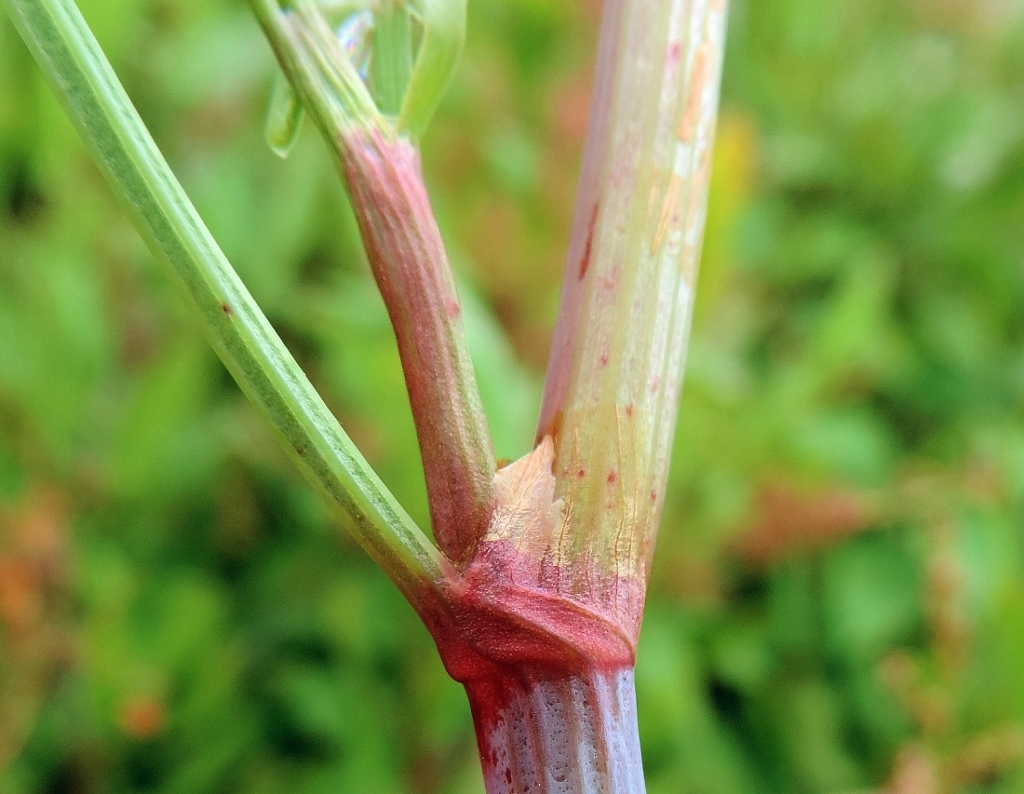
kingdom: Plantae
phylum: Tracheophyta
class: Magnoliopsida
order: Caryophyllales
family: Polygonaceae
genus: Rumex
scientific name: Rumex usambarensis
